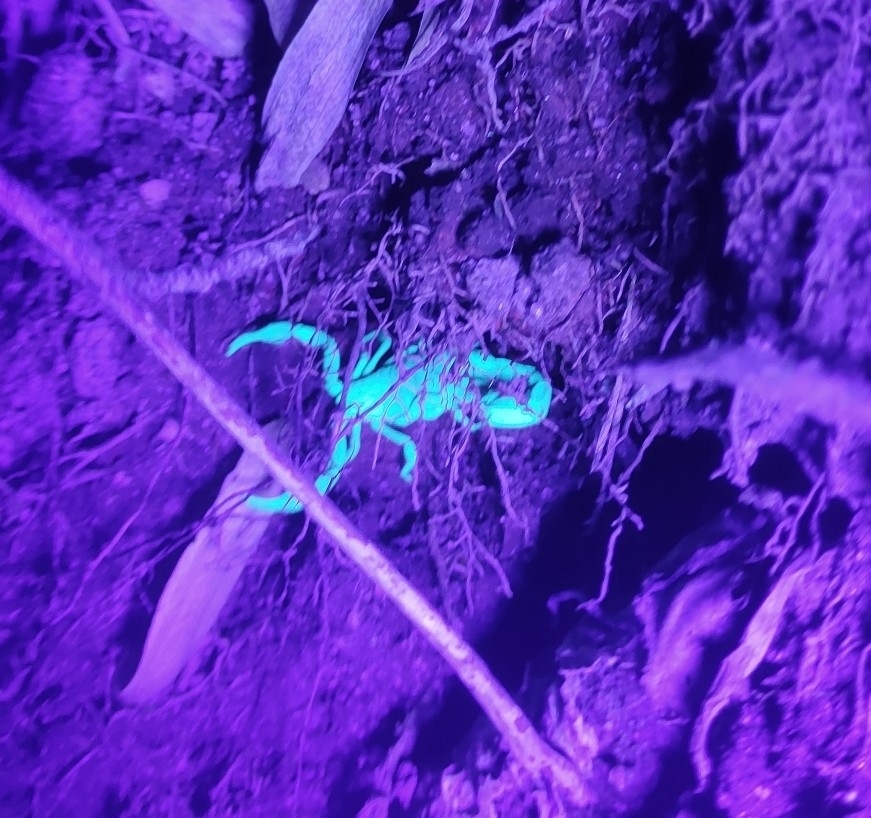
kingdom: Animalia
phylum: Arthropoda
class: Arachnida
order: Scorpiones
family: Vaejovidae
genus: Vaejovis
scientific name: Vaejovis carolinianus
